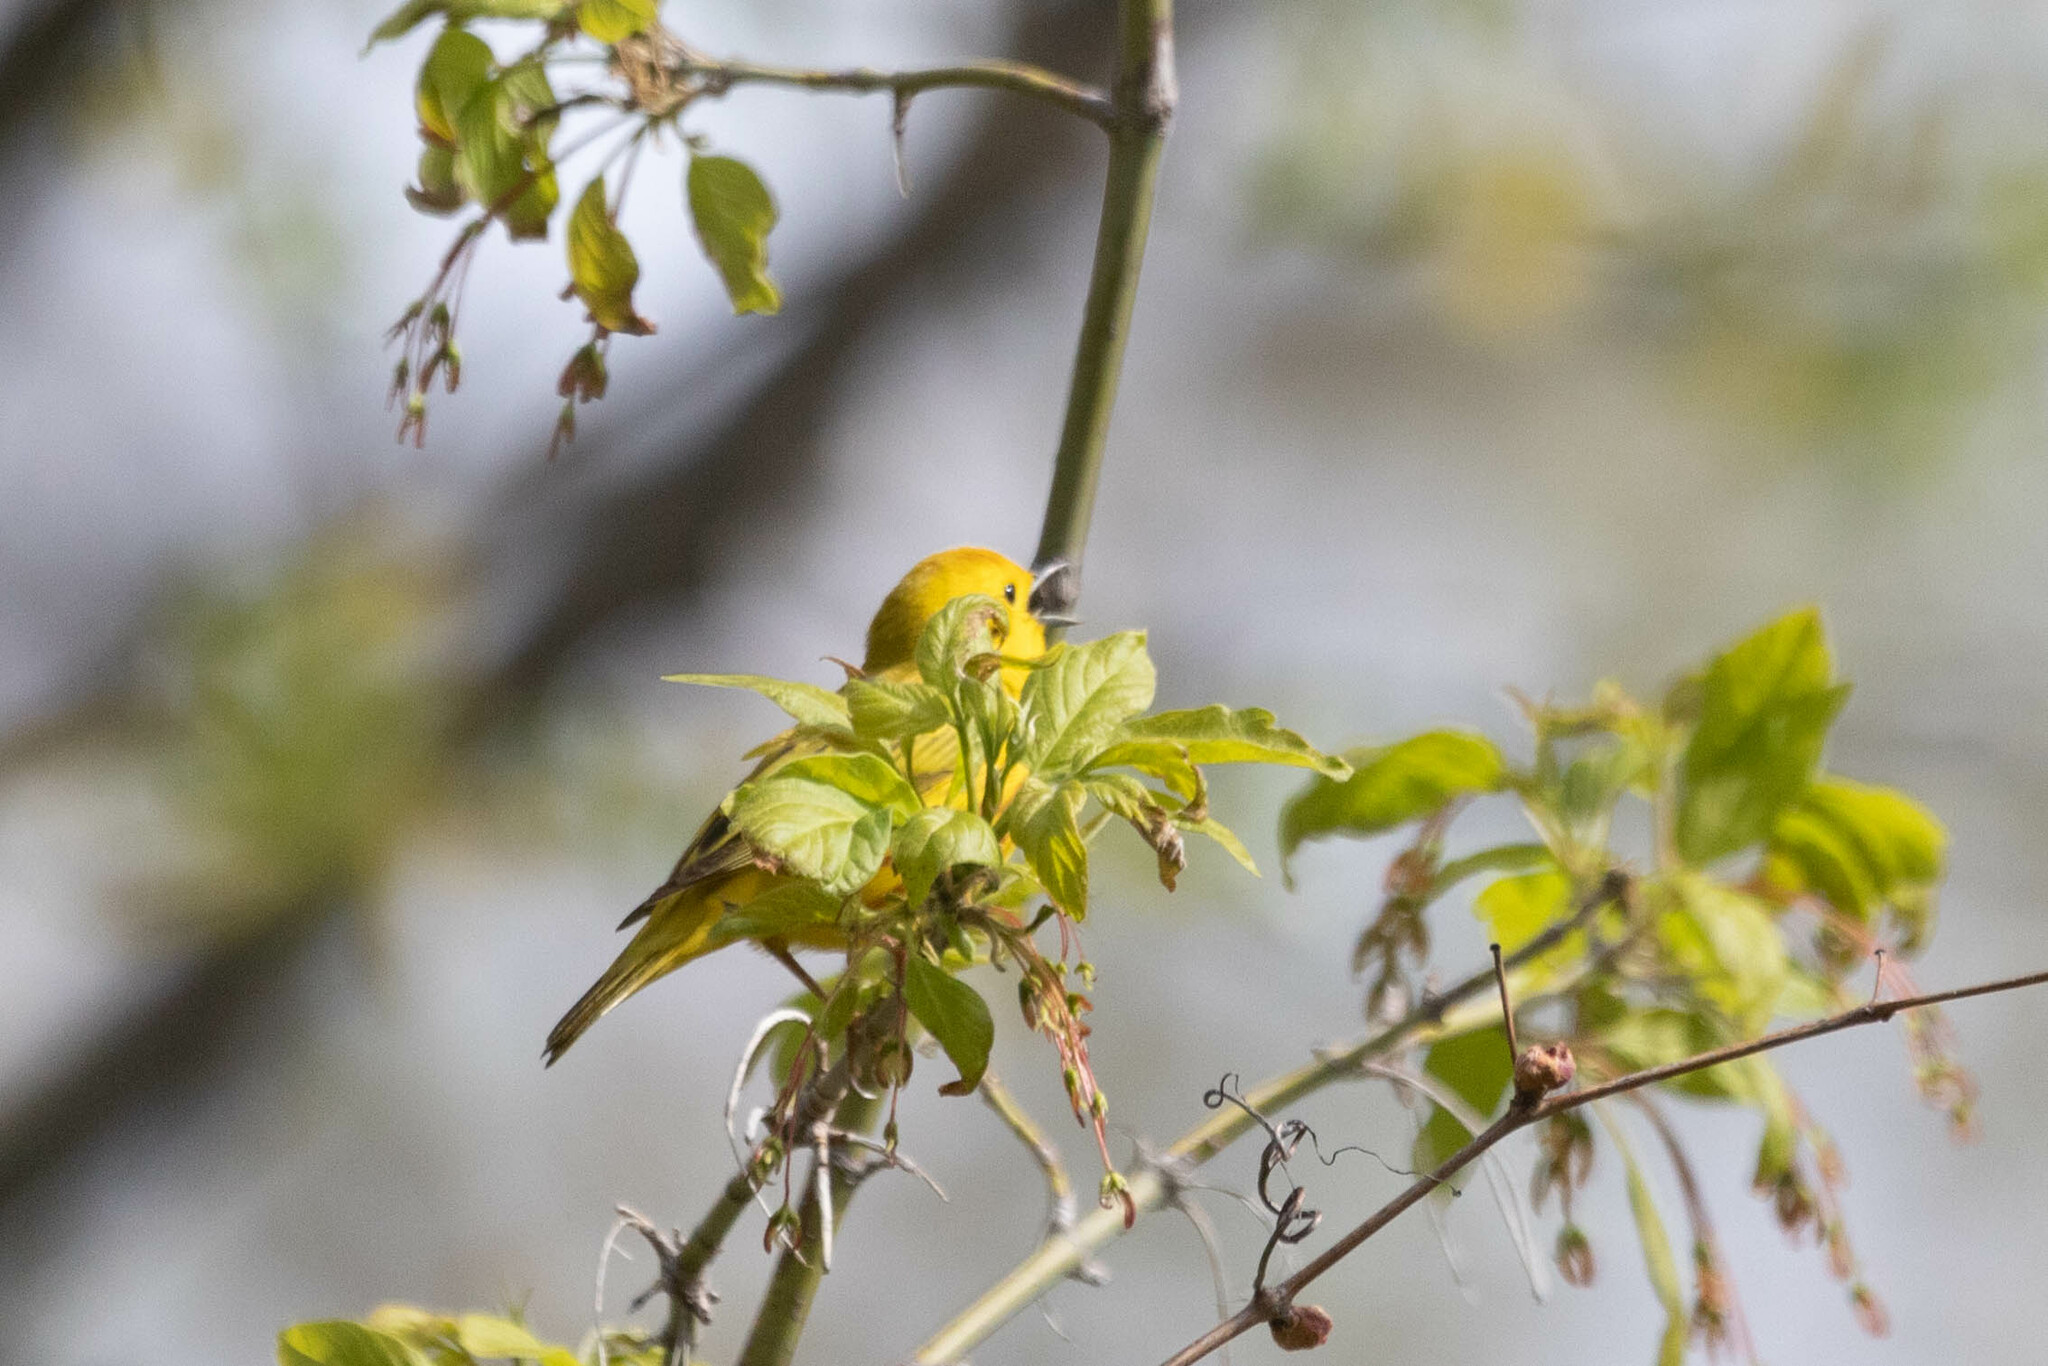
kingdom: Animalia
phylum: Chordata
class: Aves
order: Passeriformes
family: Parulidae
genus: Setophaga
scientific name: Setophaga petechia
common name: Yellow warbler
